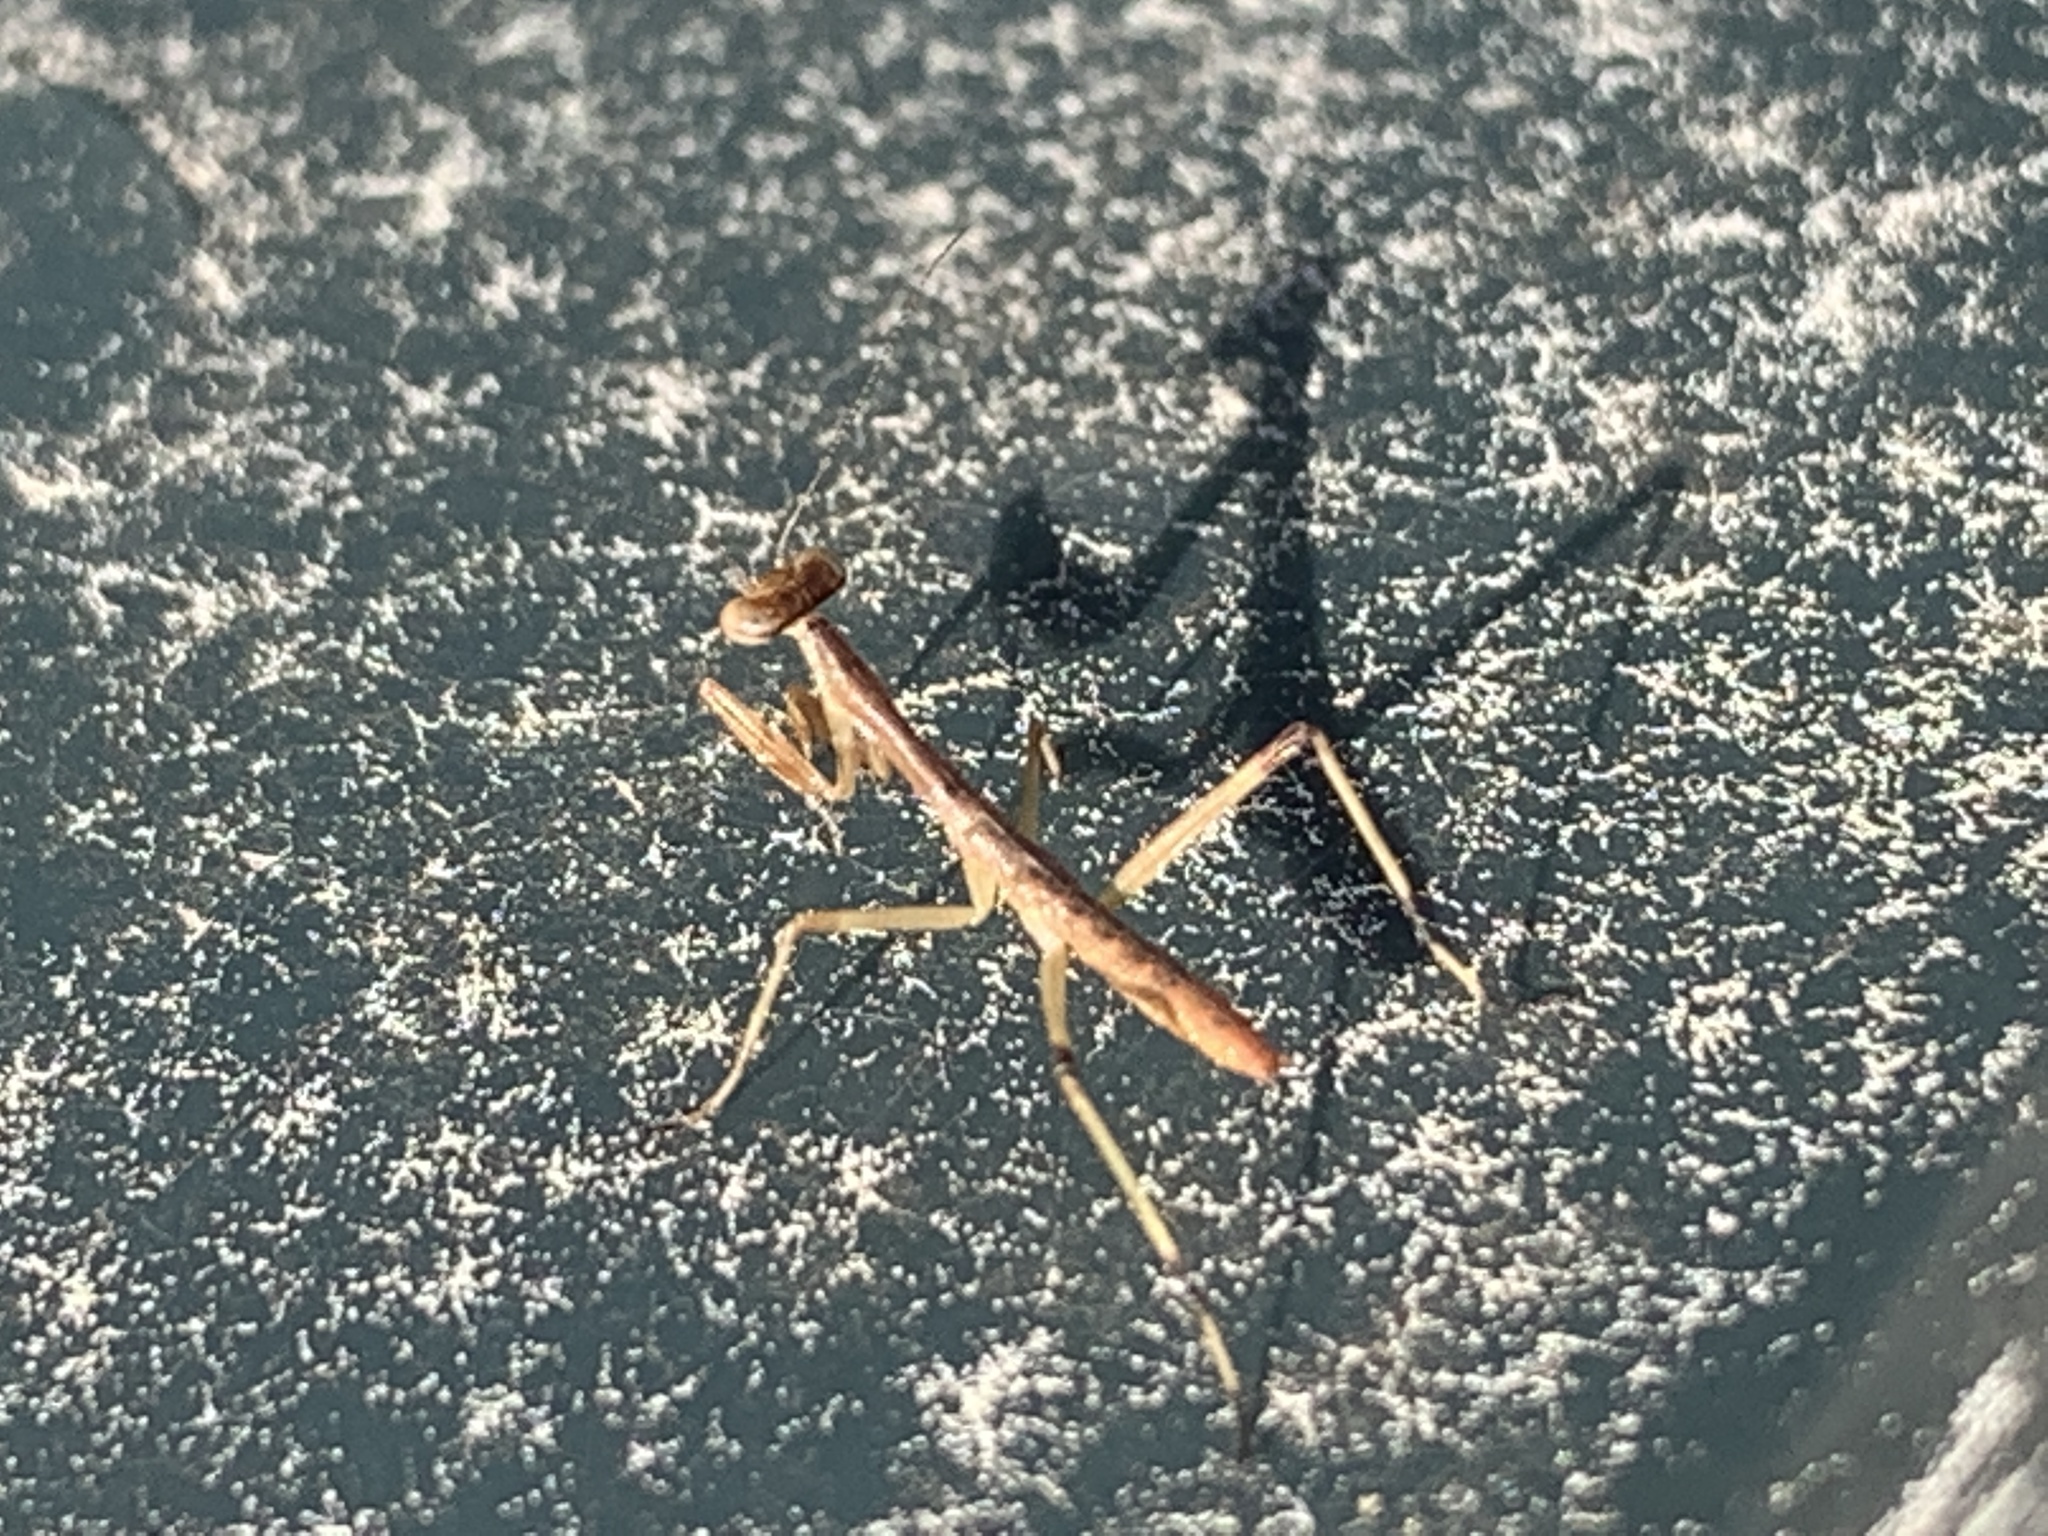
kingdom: Animalia
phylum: Arthropoda
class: Insecta
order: Mantodea
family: Mantidae
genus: Stagmomantis
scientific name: Stagmomantis carolina
